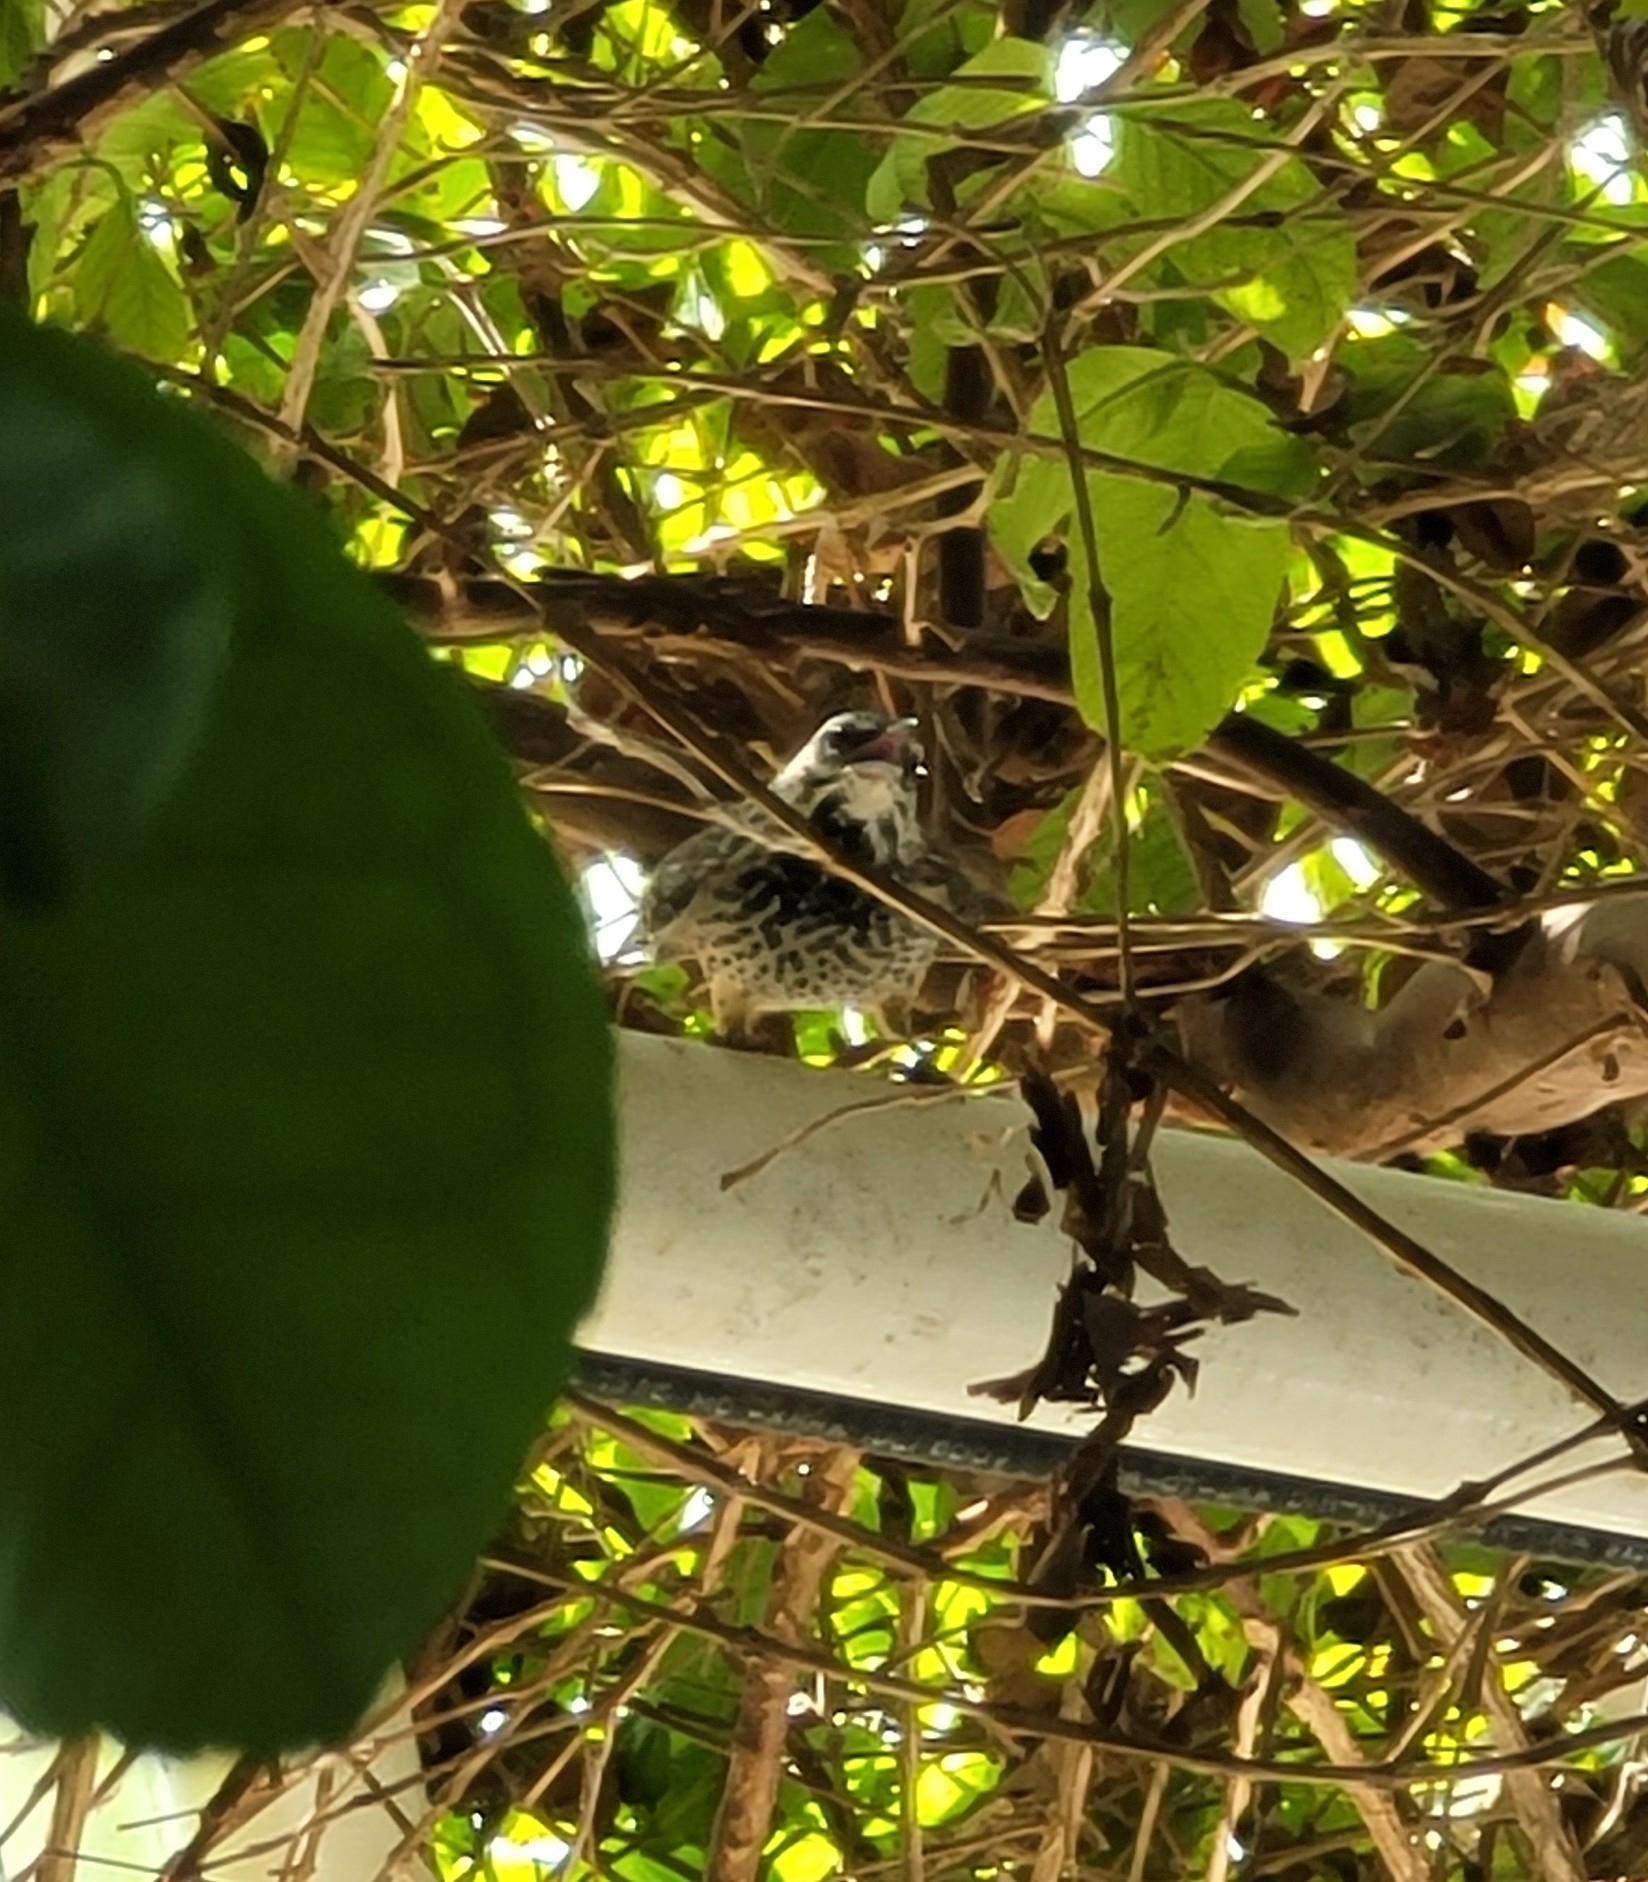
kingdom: Animalia
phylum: Chordata
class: Aves
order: Passeriformes
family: Troglodytidae
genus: Campylorhynchus
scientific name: Campylorhynchus brunneicapillus
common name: Cactus wren
